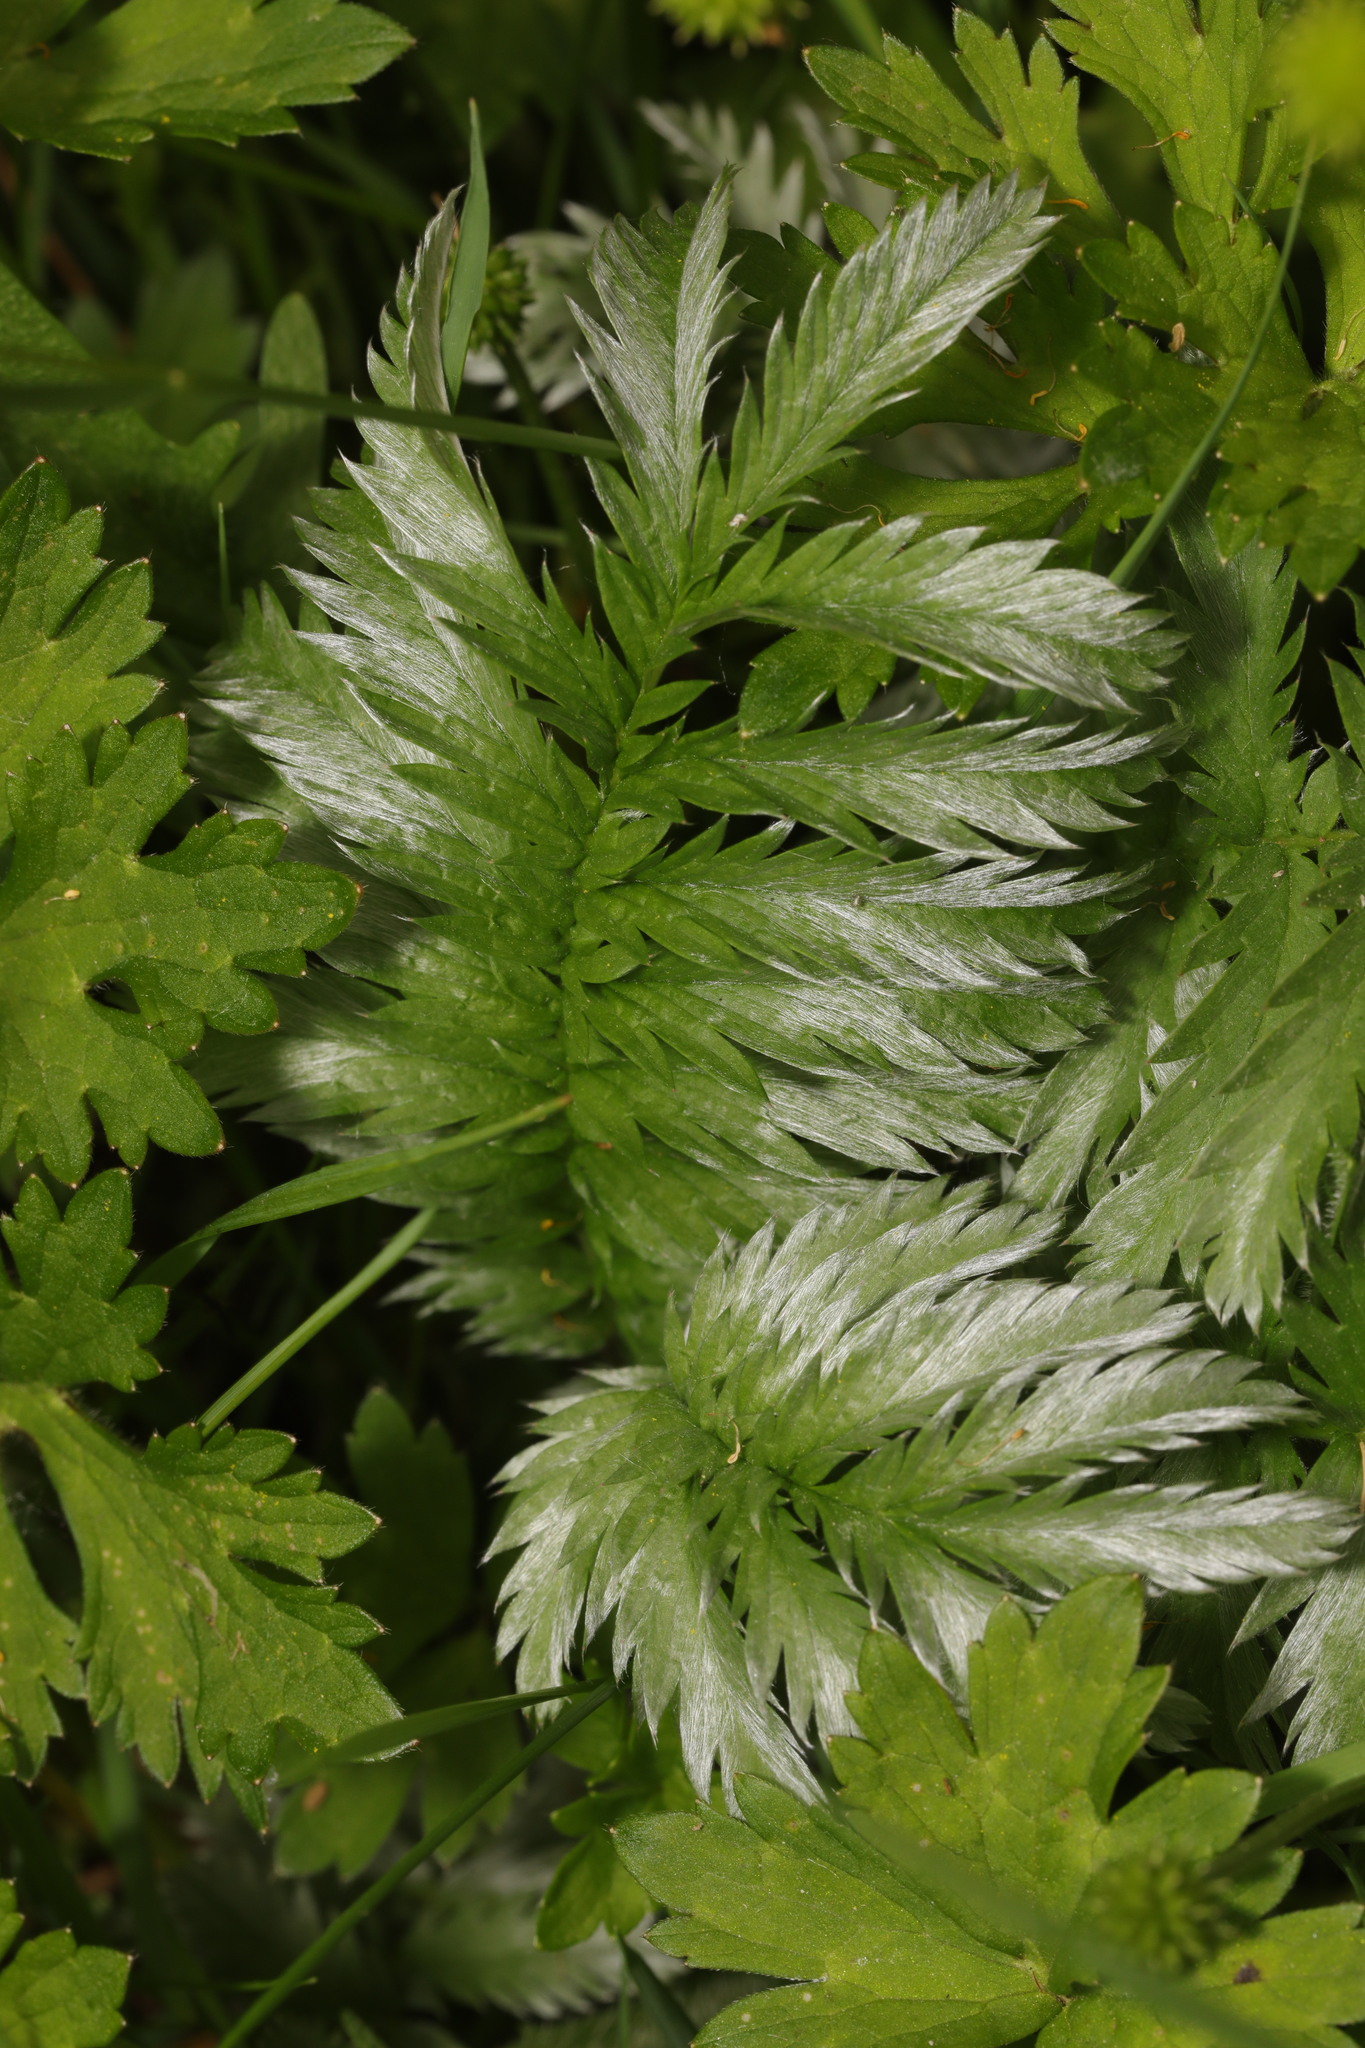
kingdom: Plantae
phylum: Tracheophyta
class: Magnoliopsida
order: Rosales
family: Rosaceae
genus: Argentina
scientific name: Argentina anserina
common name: Common silverweed
